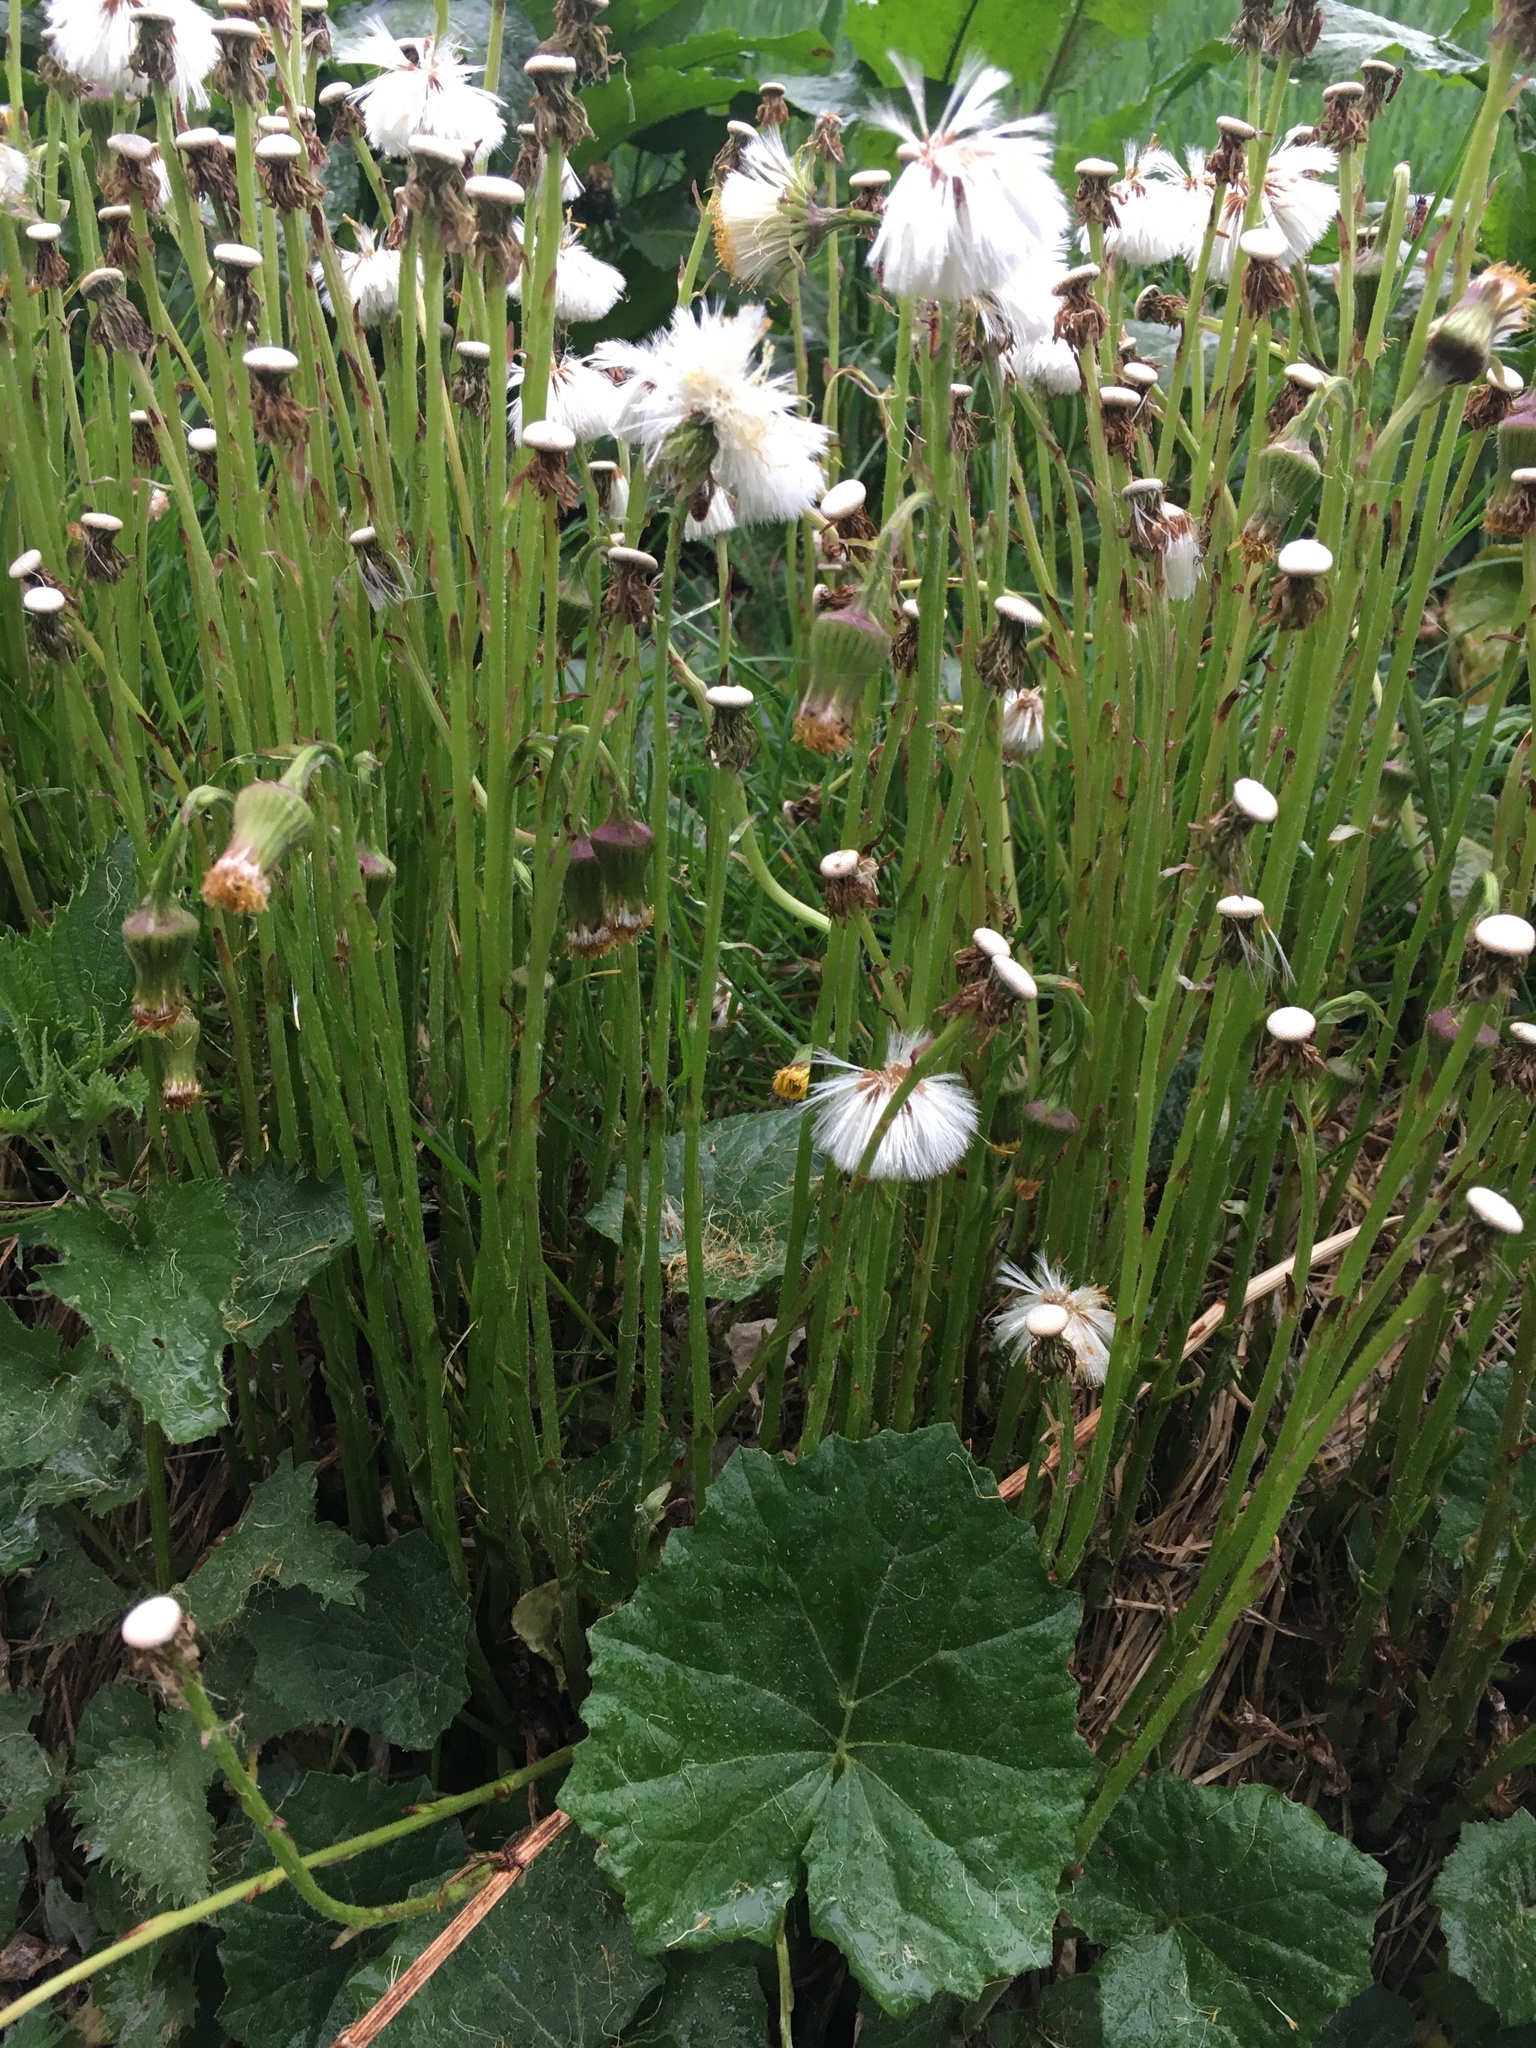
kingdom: Plantae
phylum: Tracheophyta
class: Magnoliopsida
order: Asterales
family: Asteraceae
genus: Tussilago
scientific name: Tussilago farfara
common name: Coltsfoot
